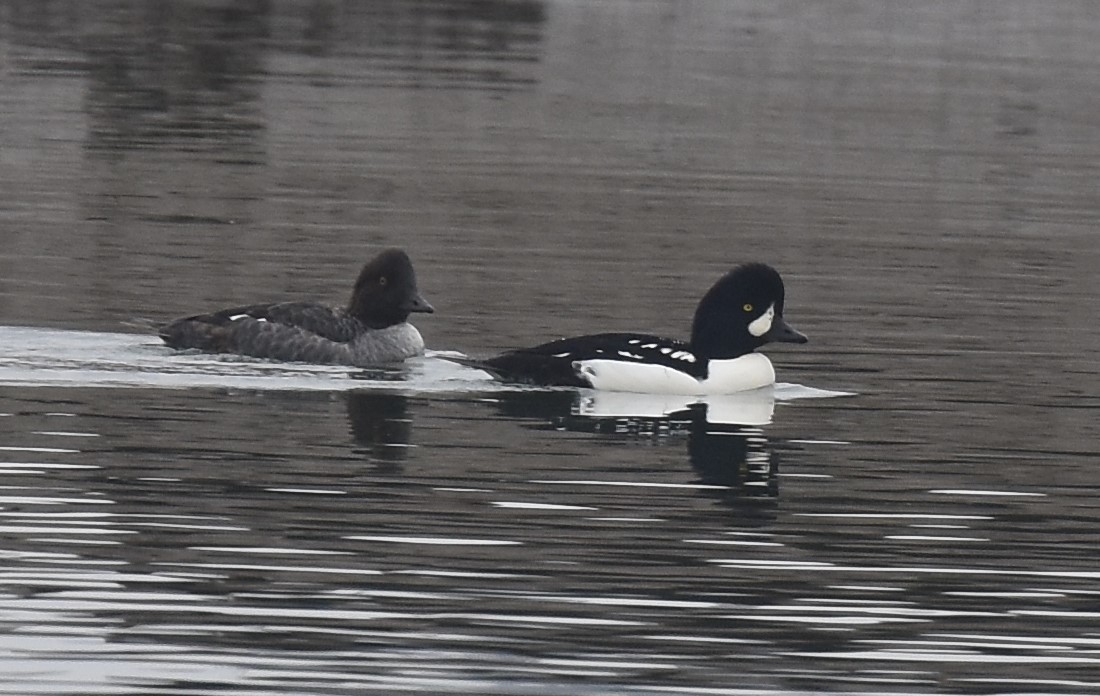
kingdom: Animalia
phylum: Chordata
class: Aves
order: Anseriformes
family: Anatidae
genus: Bucephala
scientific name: Bucephala islandica
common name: Barrow's goldeneye
